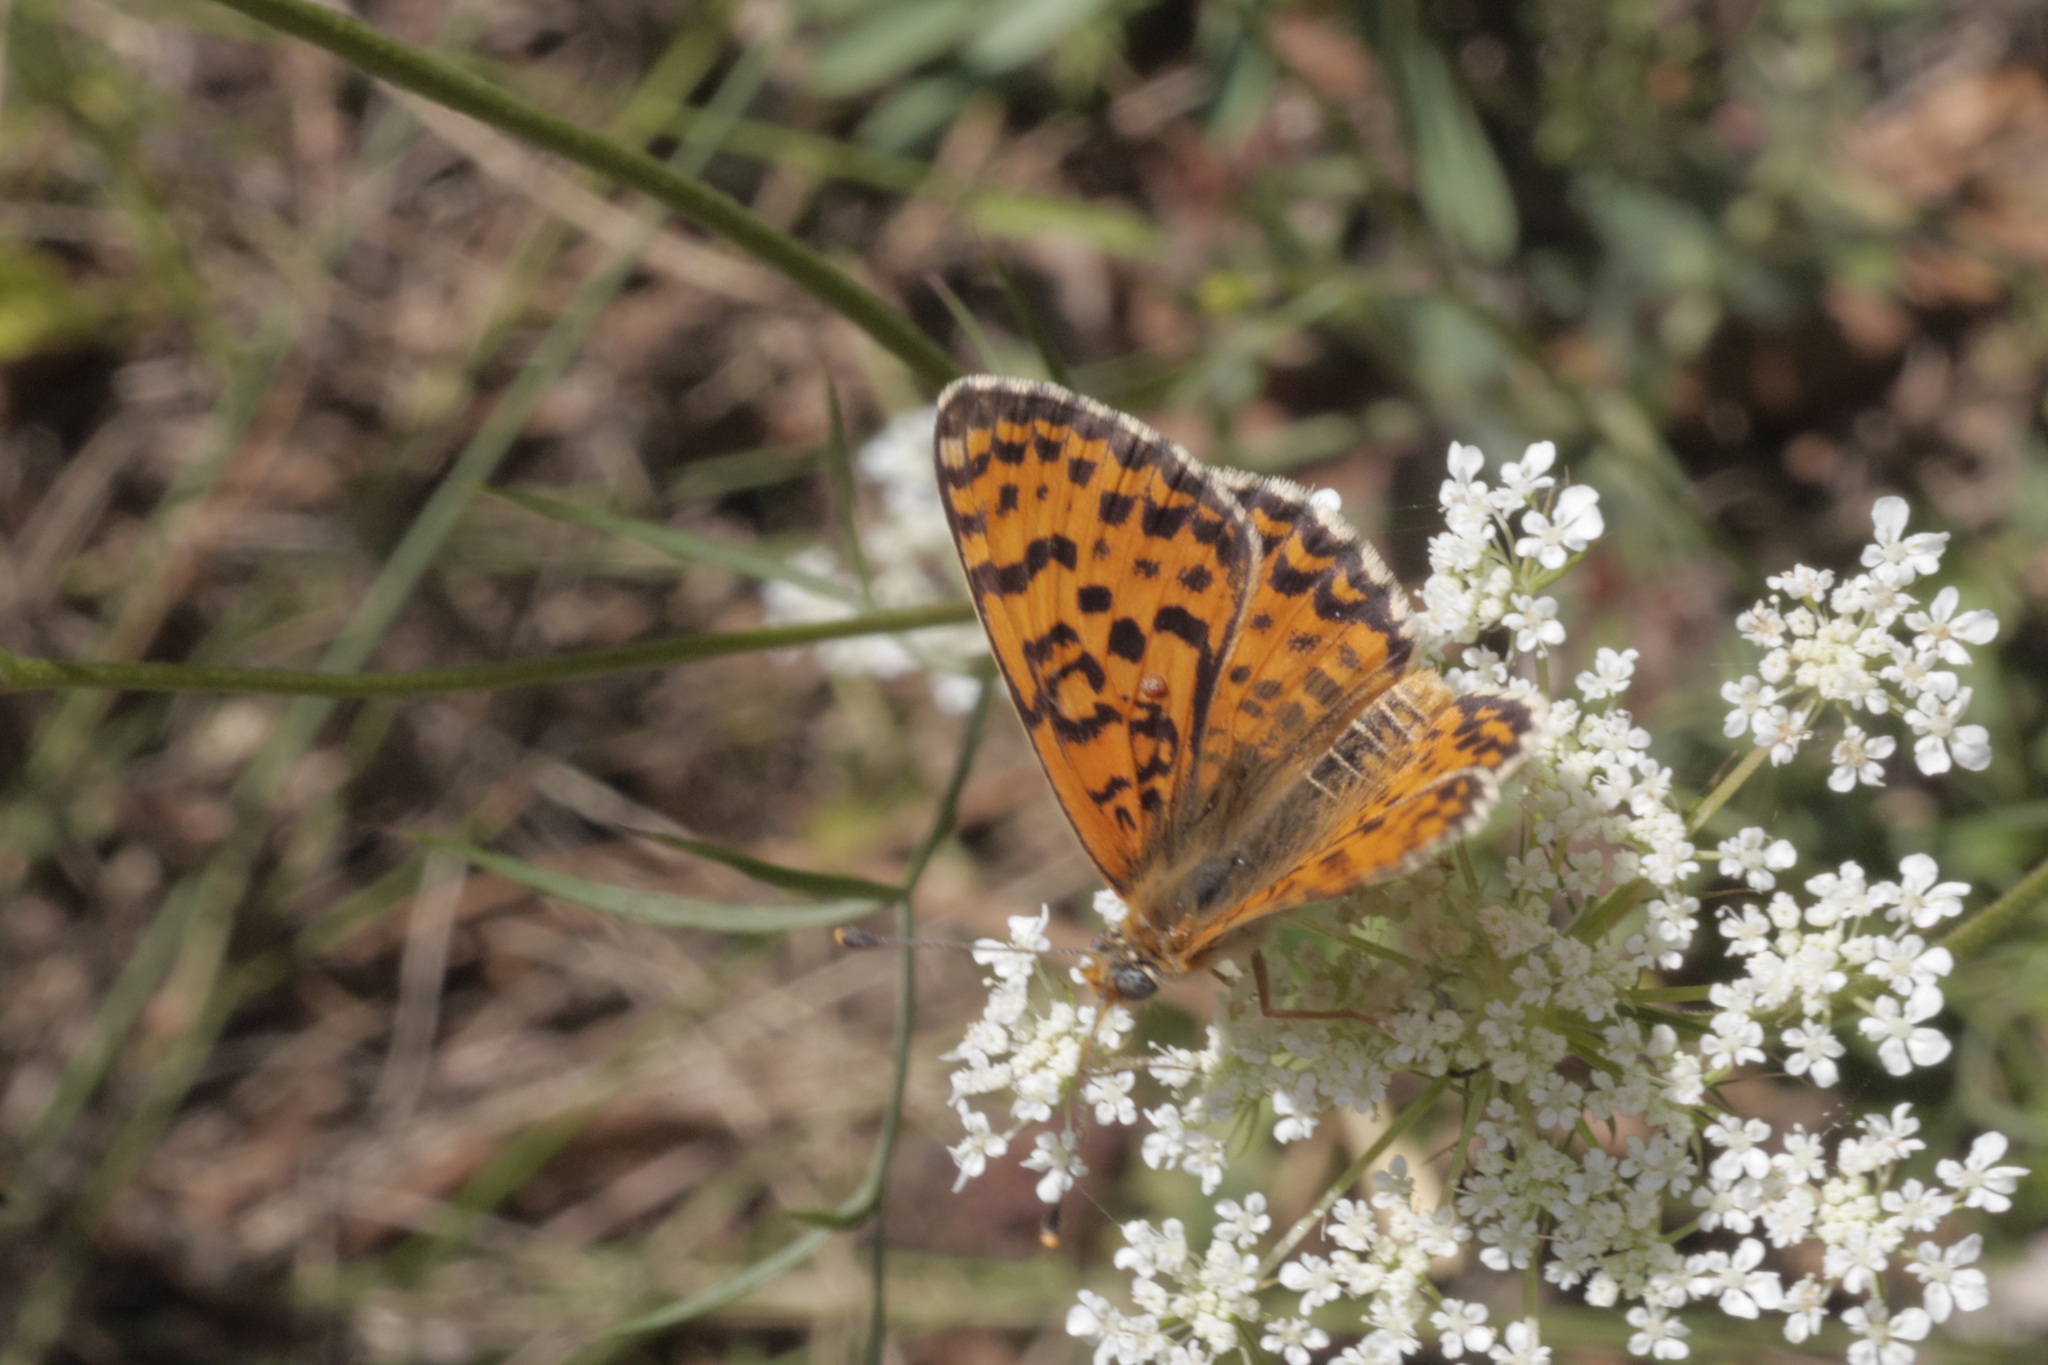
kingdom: Animalia
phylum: Arthropoda
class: Insecta
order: Lepidoptera
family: Nymphalidae
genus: Melitaea
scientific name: Melitaea didyma
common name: Spotted fritillary
